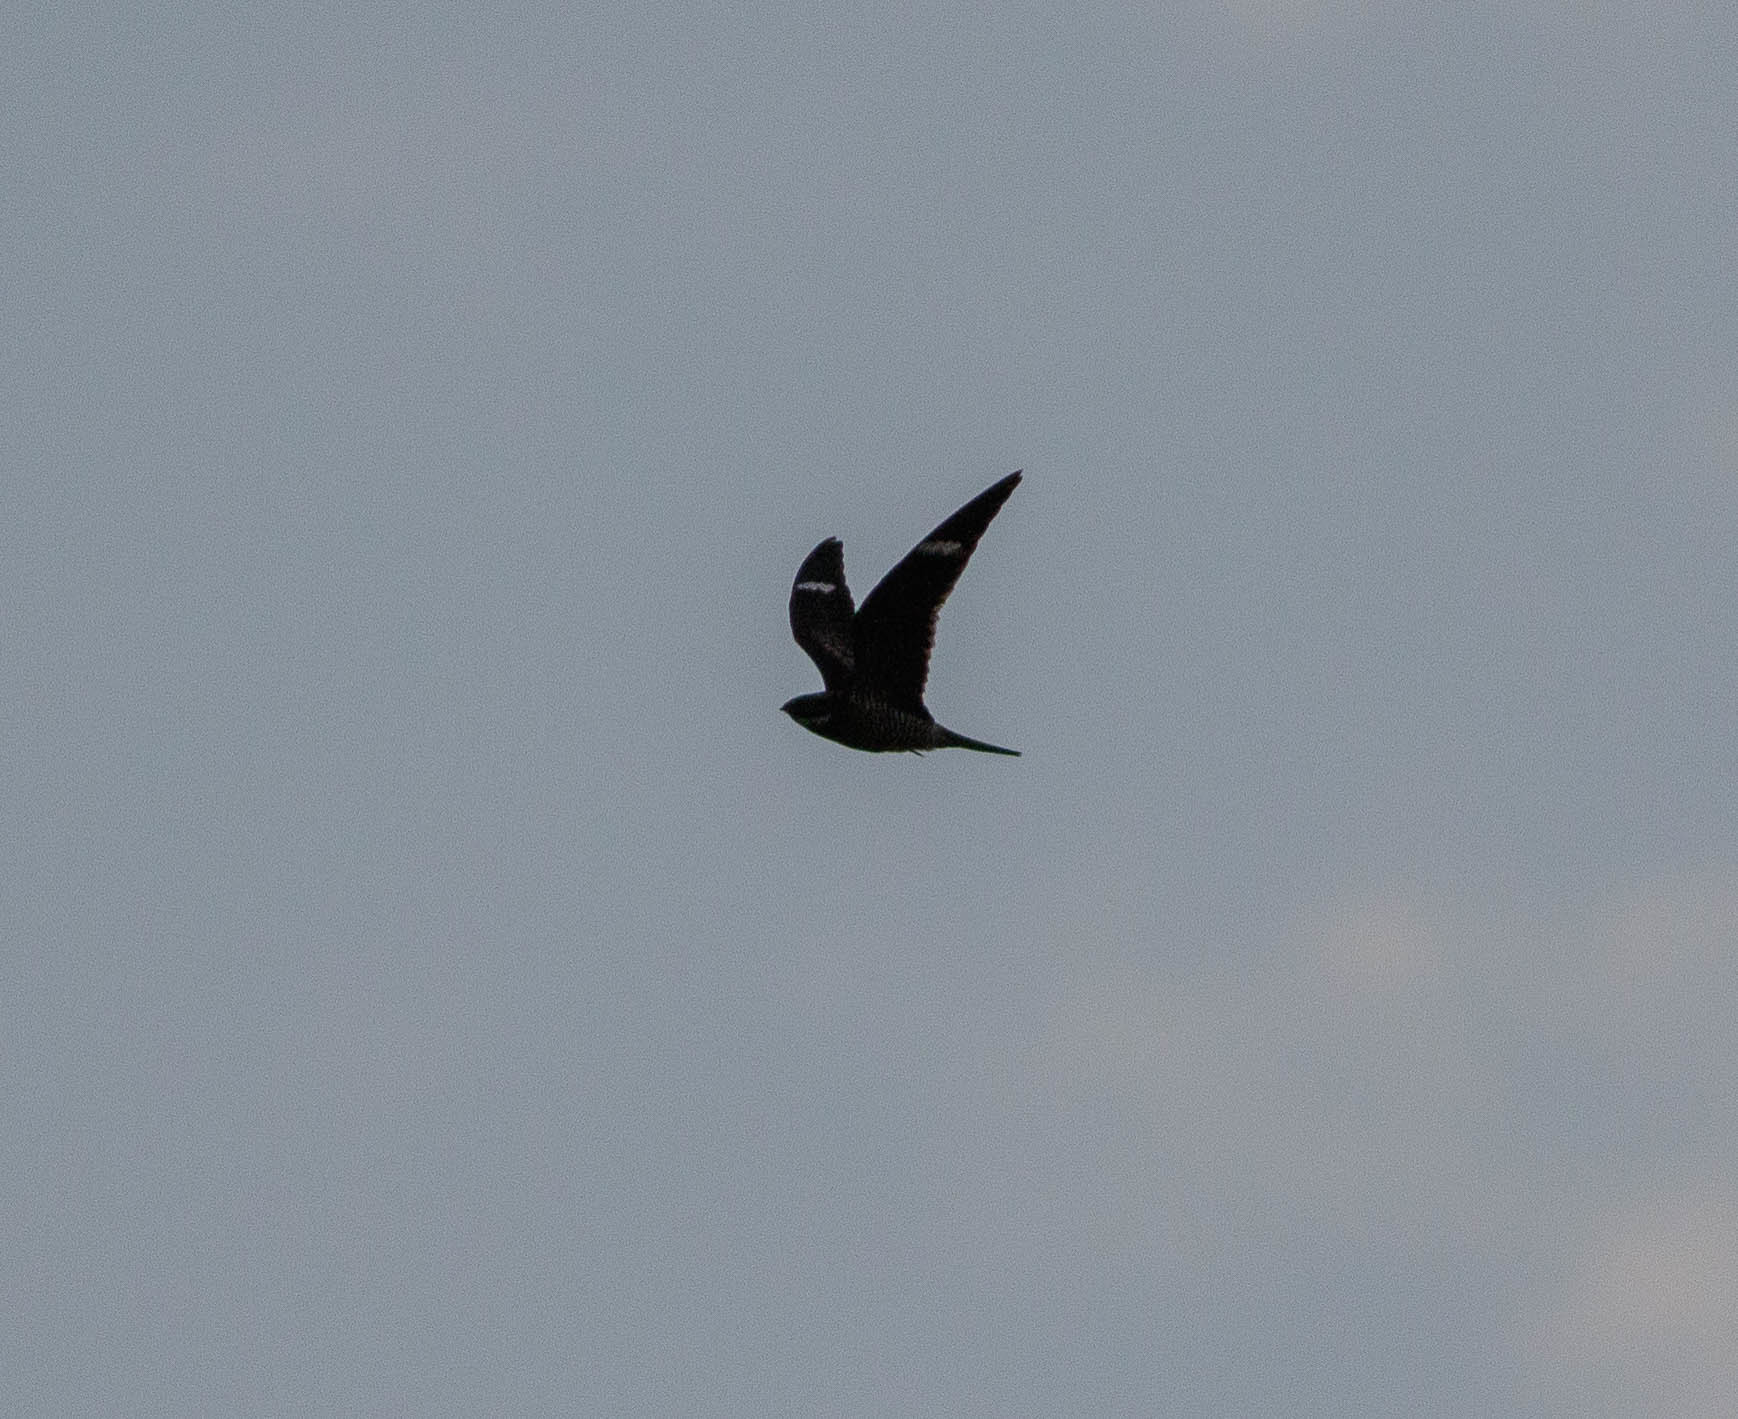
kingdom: Animalia
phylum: Chordata
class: Aves
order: Caprimulgiformes
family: Caprimulgidae
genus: Chordeiles
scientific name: Chordeiles minor
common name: Common nighthawk
